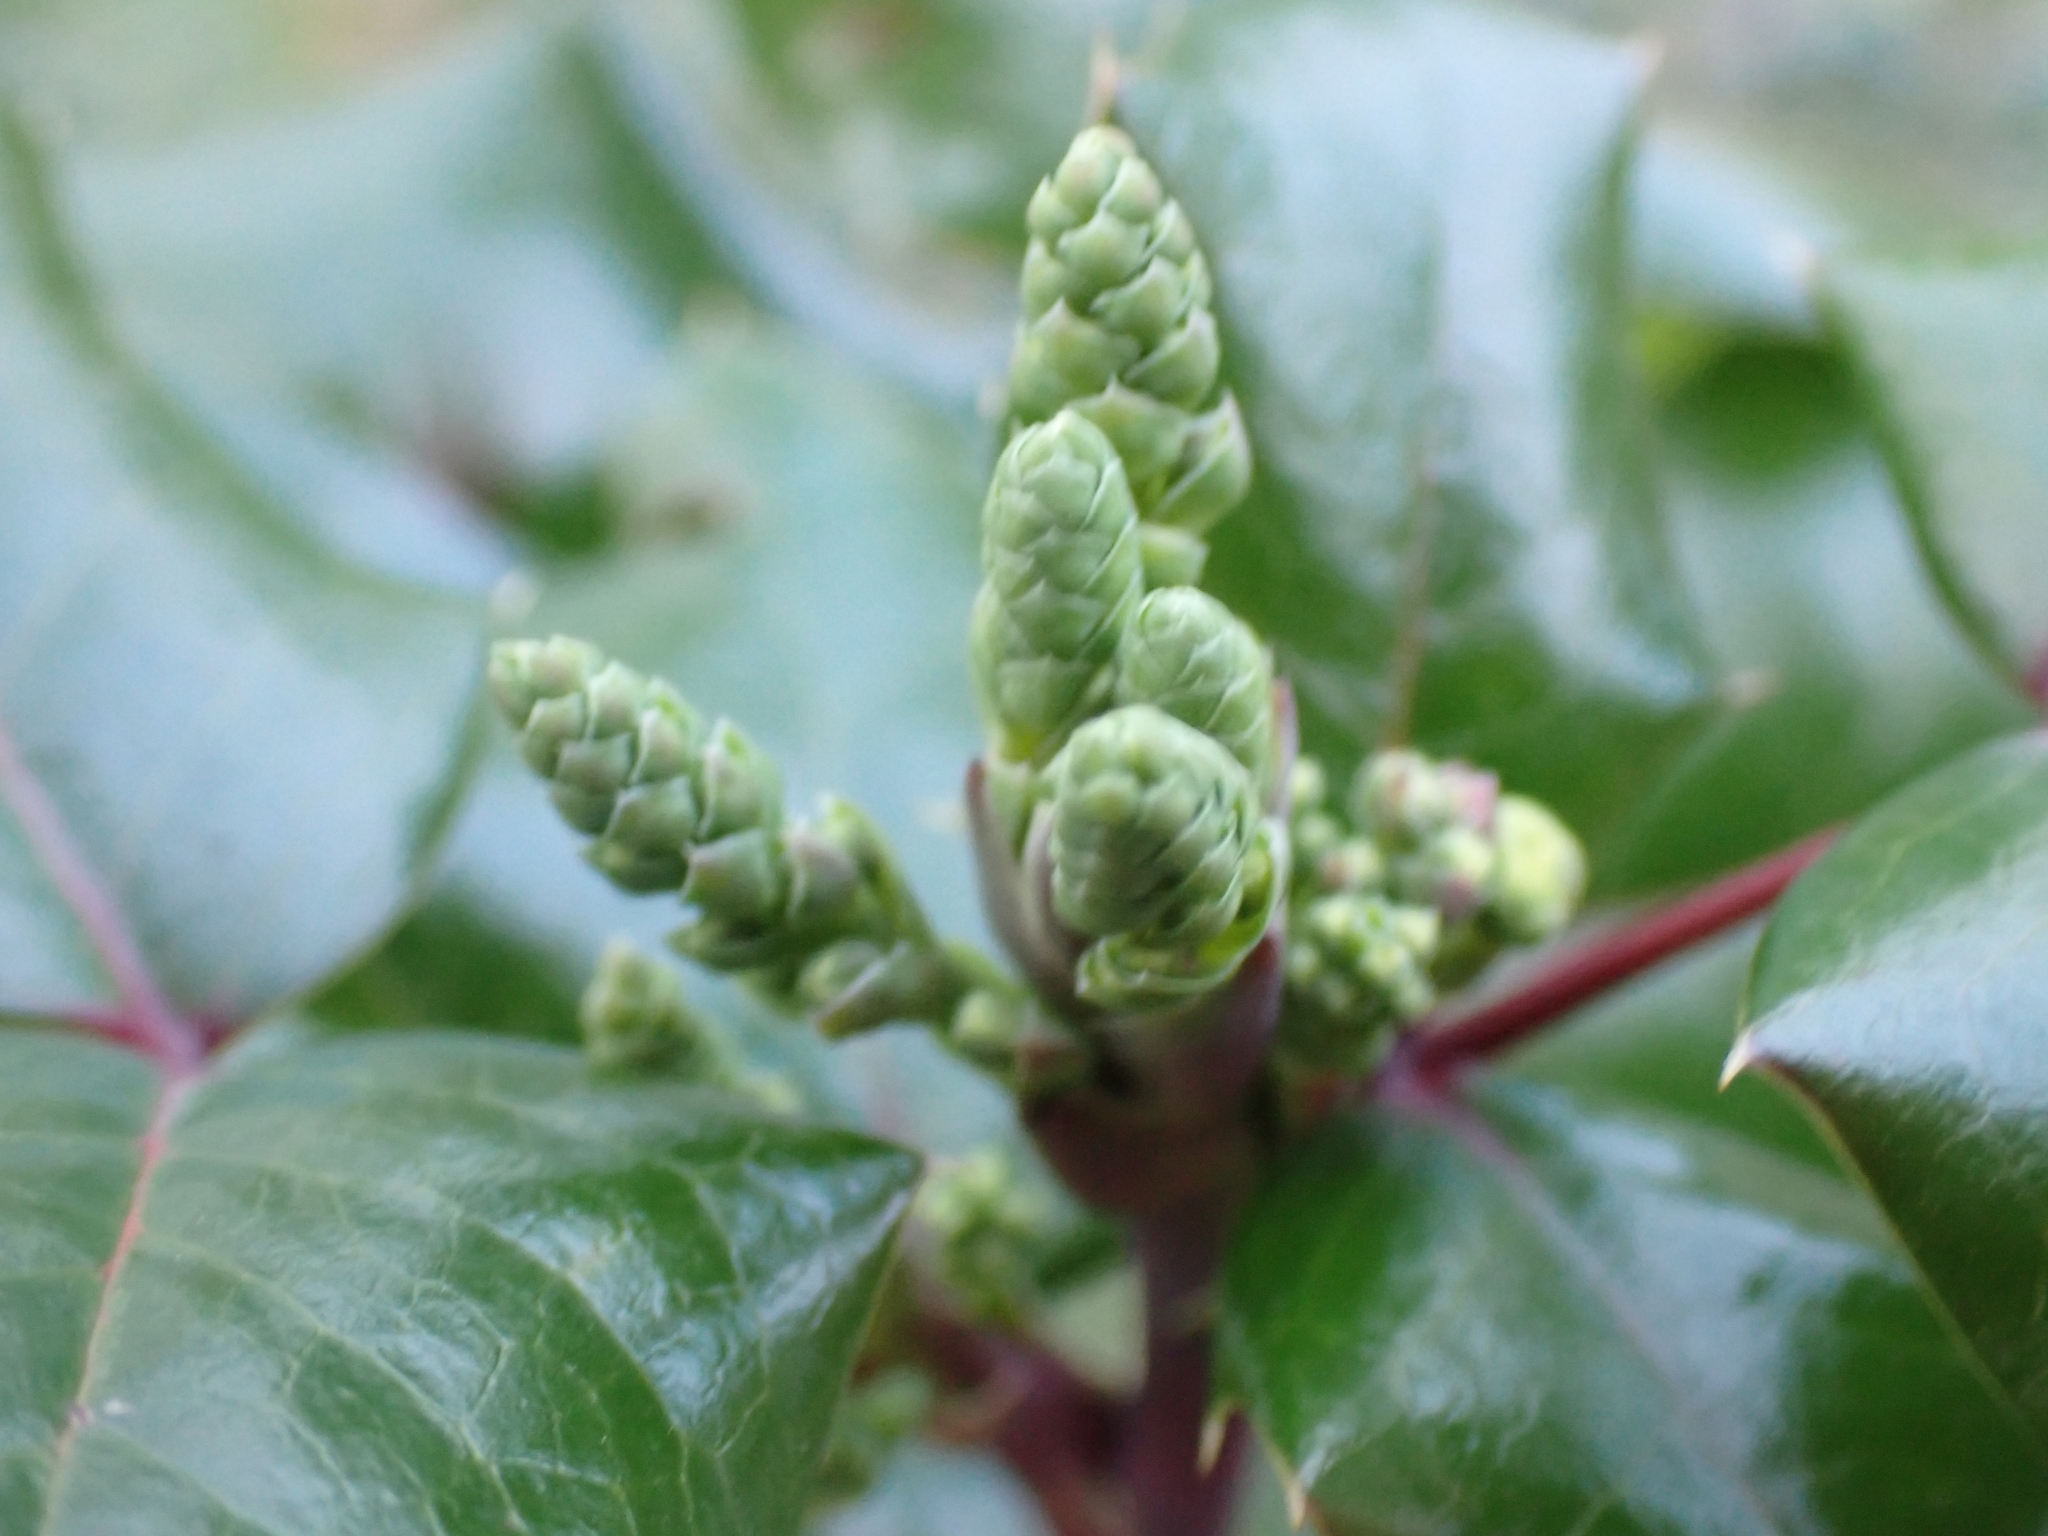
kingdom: Plantae
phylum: Tracheophyta
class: Magnoliopsida
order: Ranunculales
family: Berberidaceae
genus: Mahonia
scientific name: Mahonia aquifolium
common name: Oregon-grape
